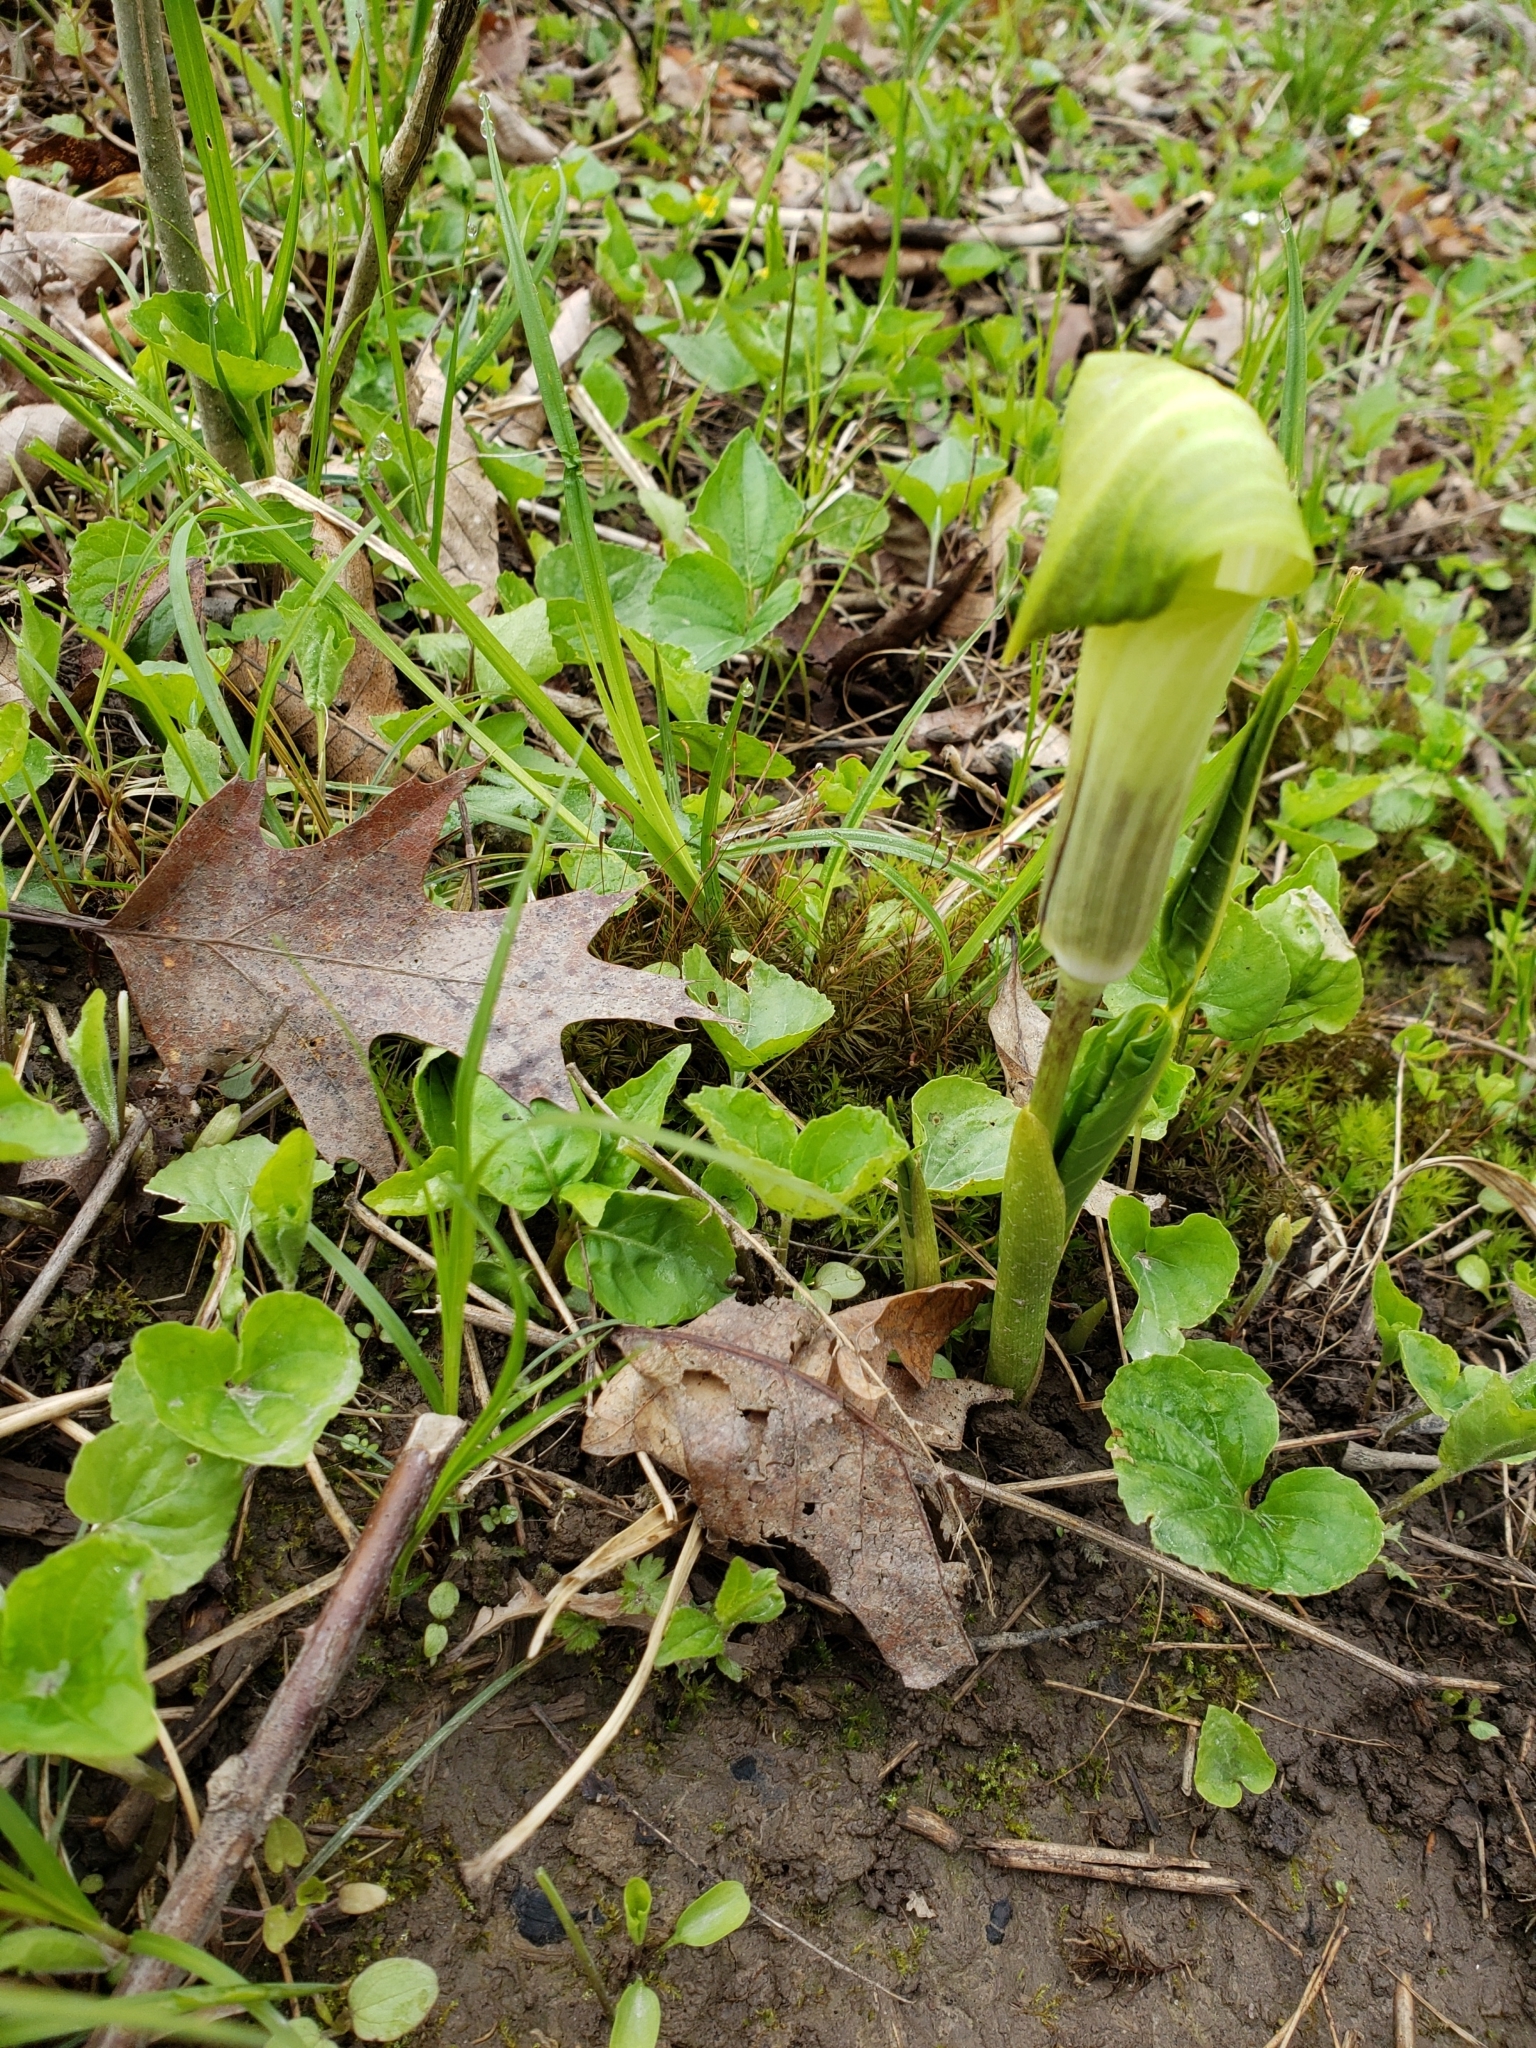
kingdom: Plantae
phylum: Tracheophyta
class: Liliopsida
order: Alismatales
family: Araceae
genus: Arisaema
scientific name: Arisaema triphyllum
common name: Jack-in-the-pulpit
